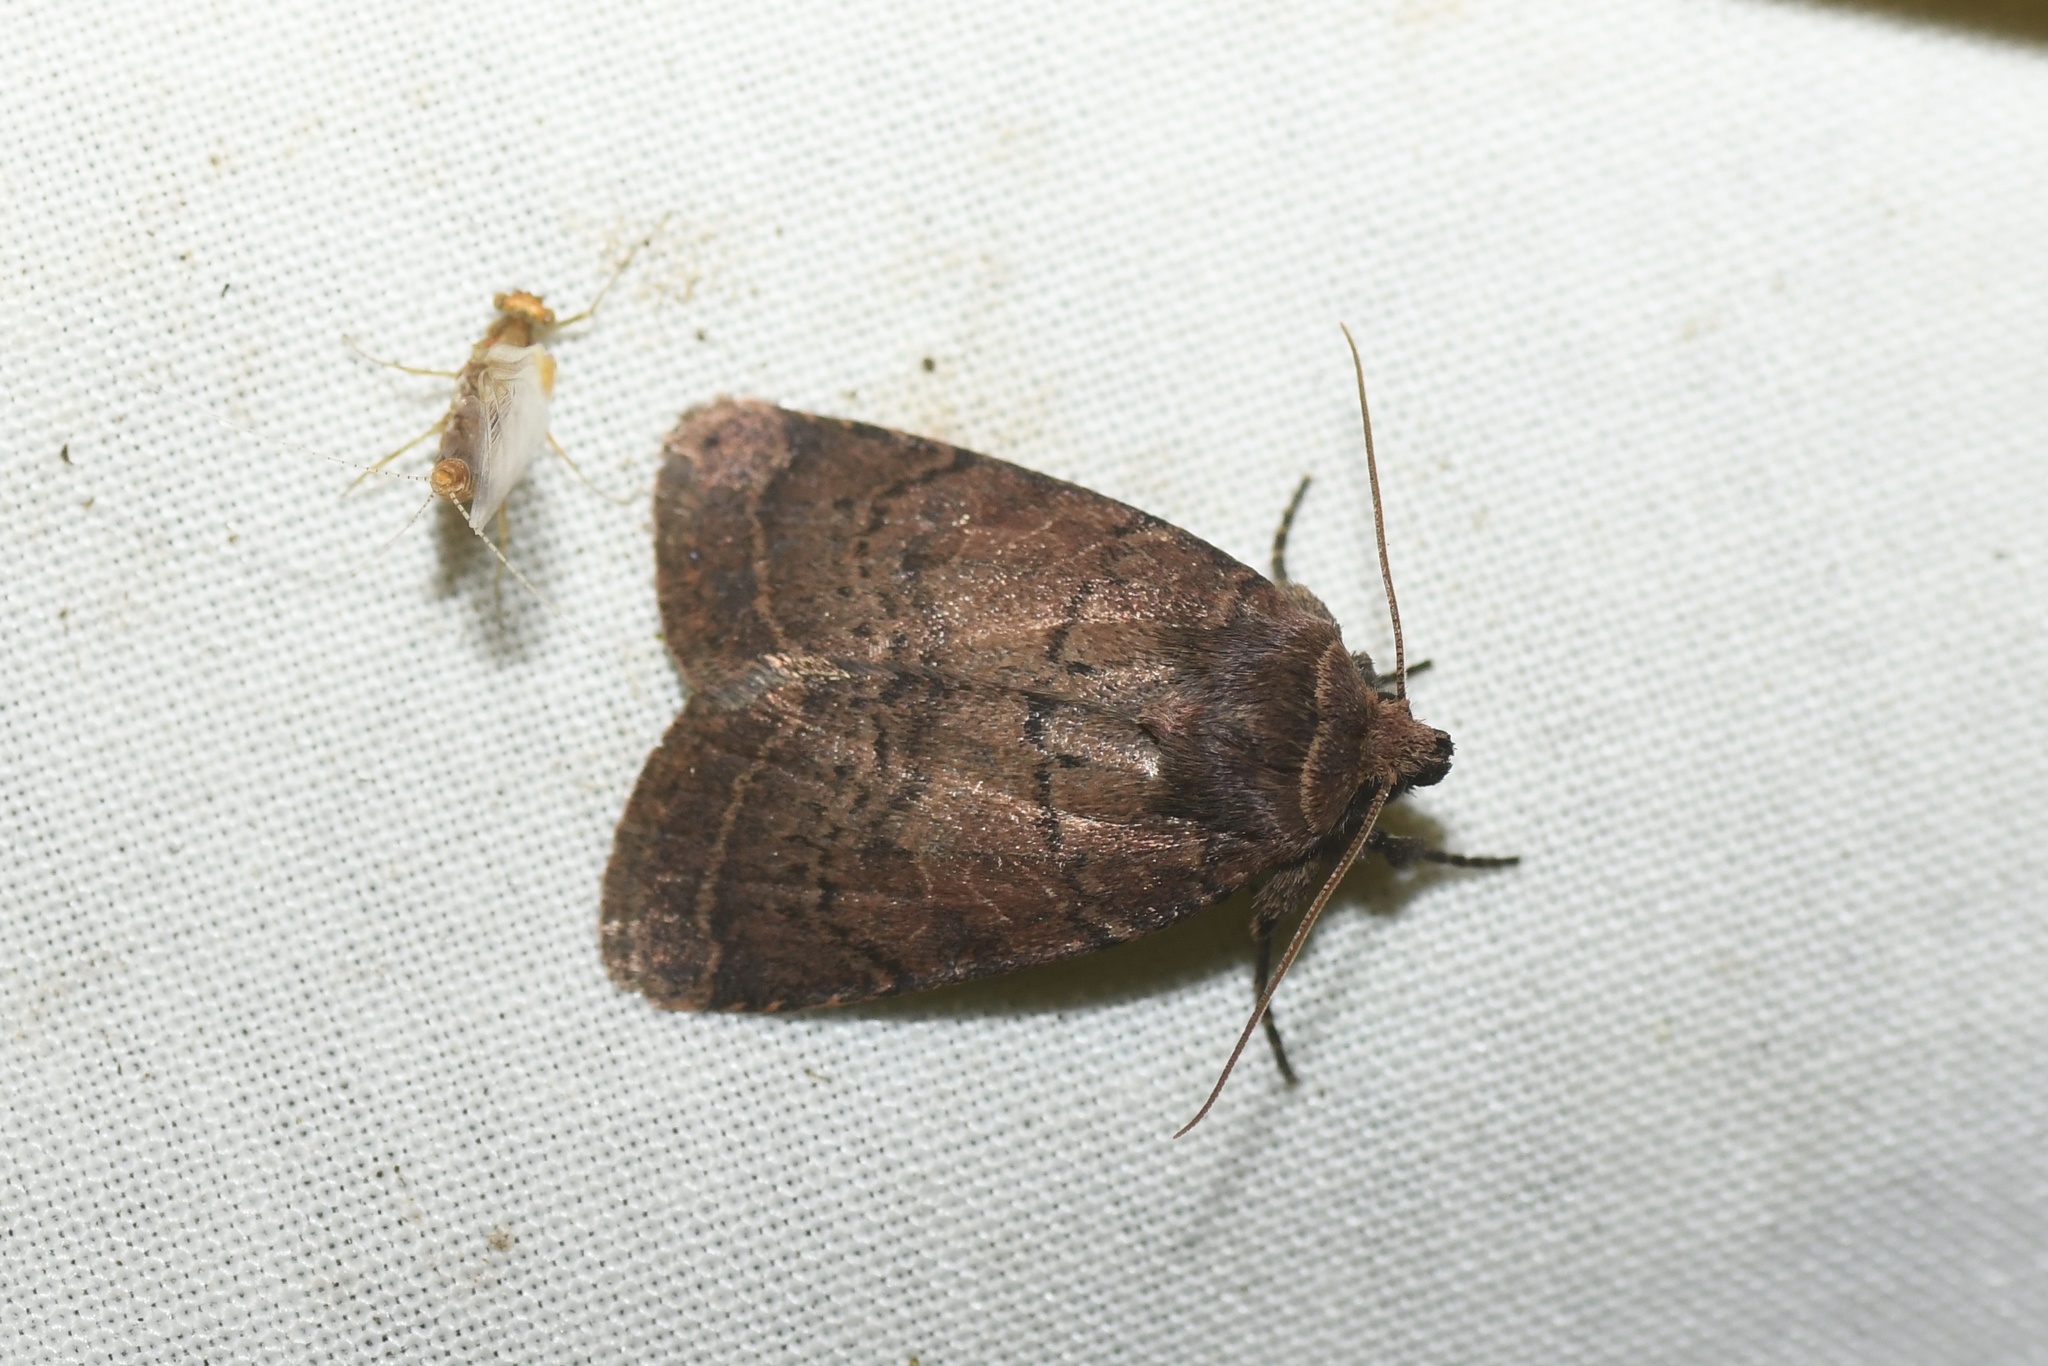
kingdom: Animalia
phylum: Arthropoda
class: Insecta
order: Lepidoptera
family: Noctuidae
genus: Orthodes
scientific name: Orthodes cynica
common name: Cynical quaker
